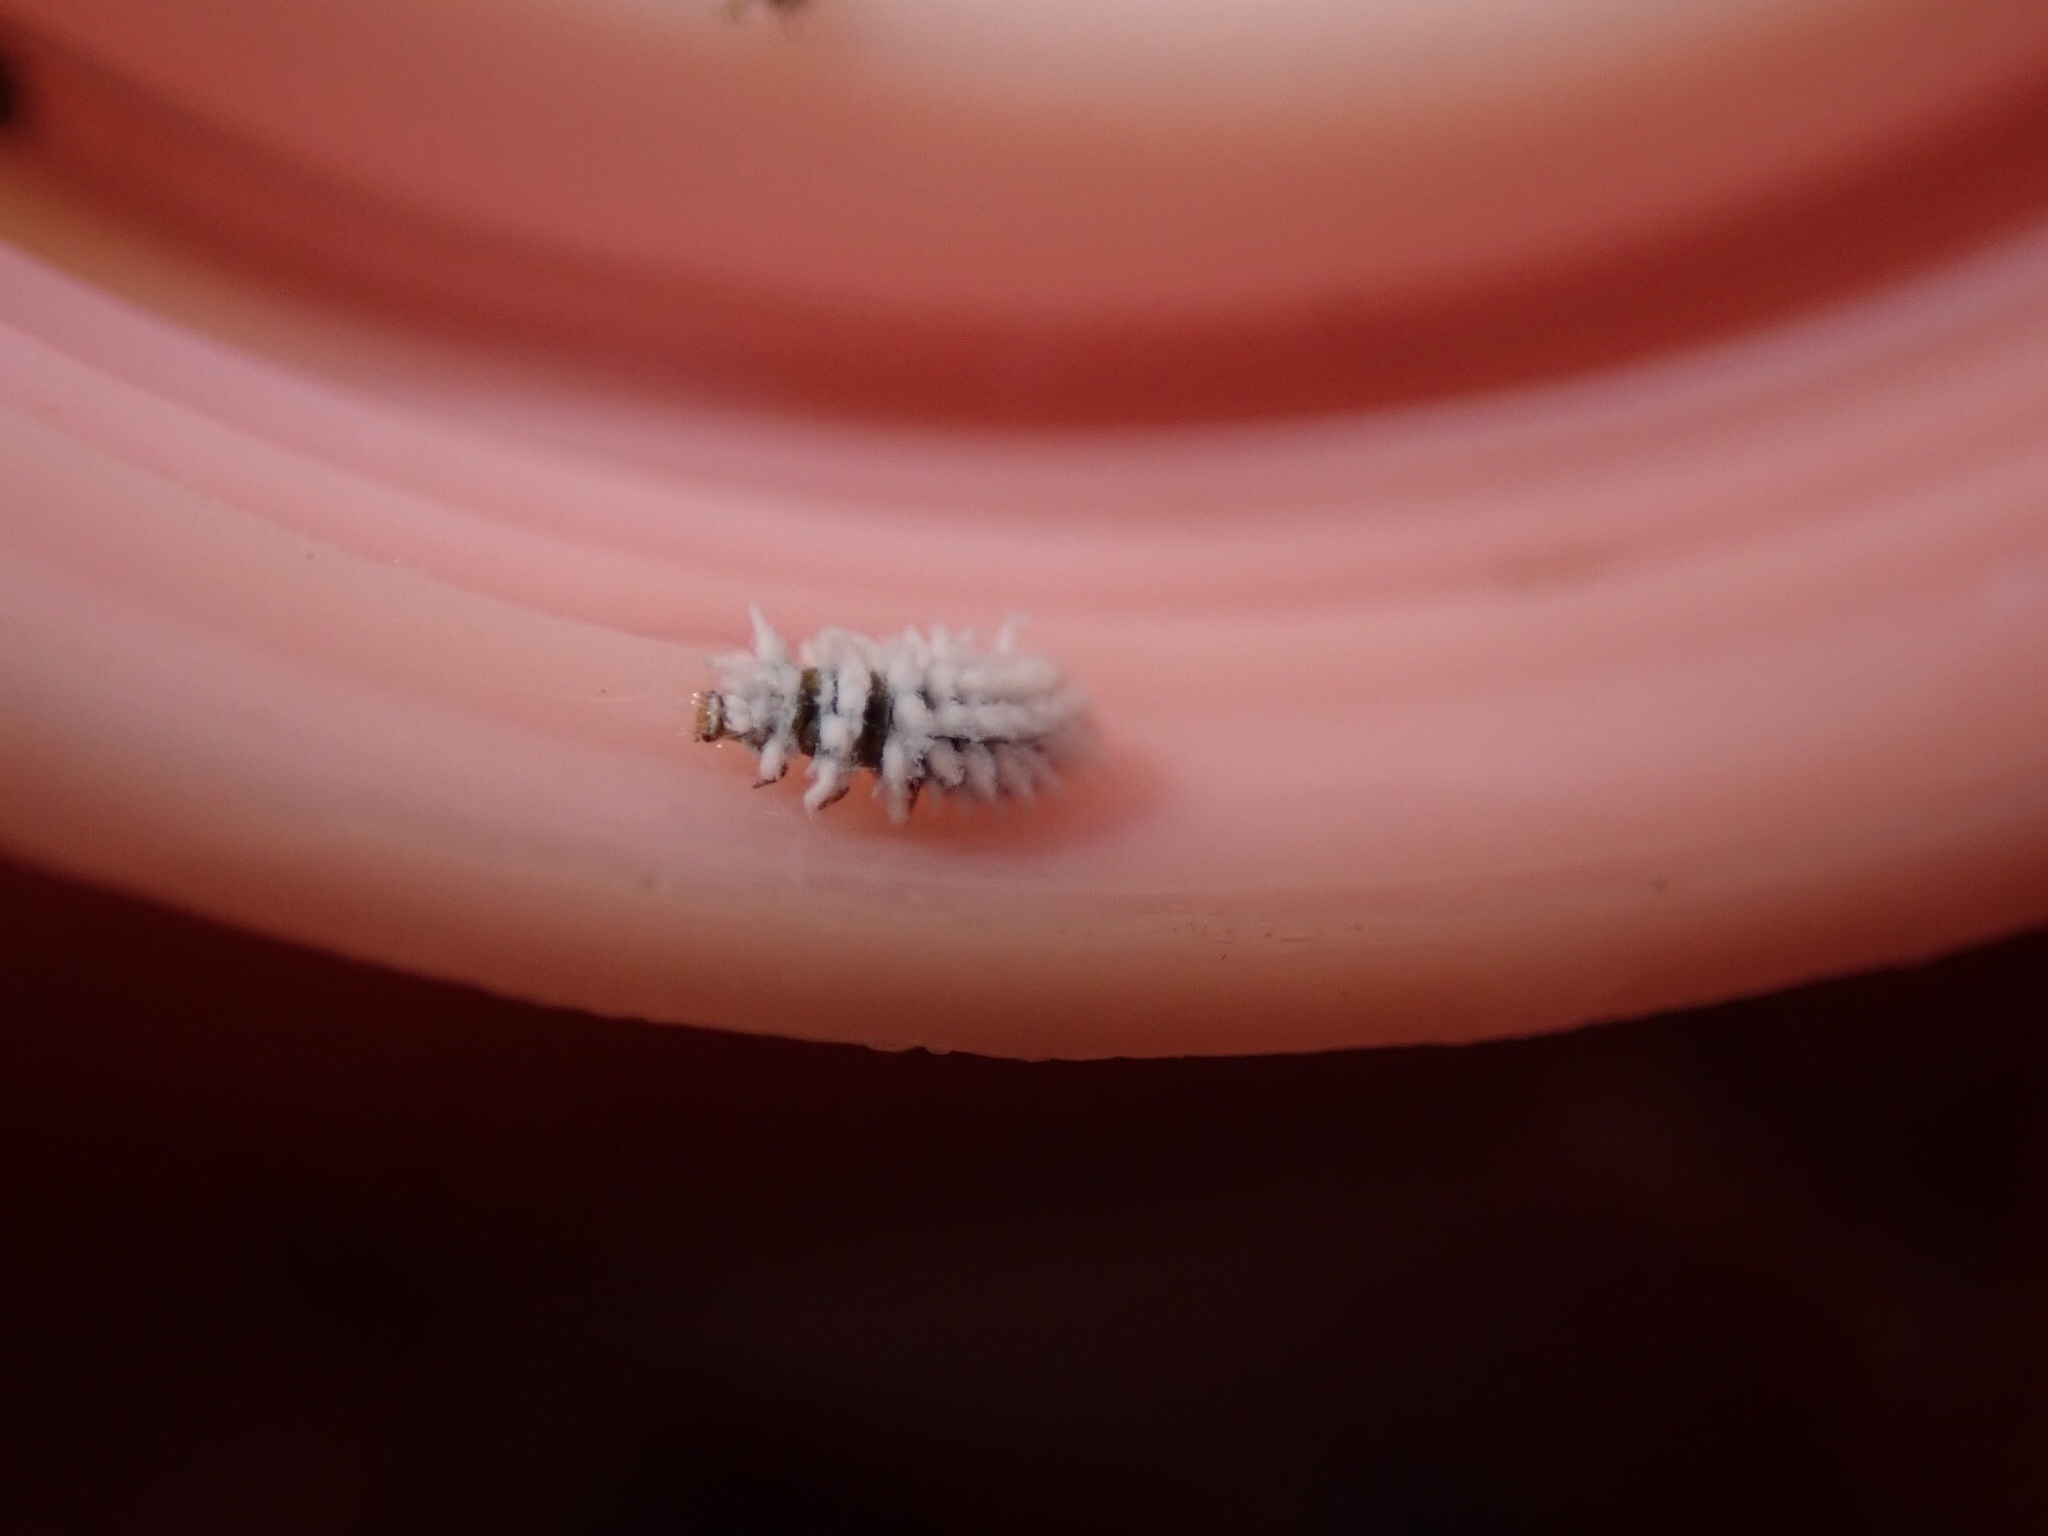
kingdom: Animalia
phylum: Arthropoda
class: Insecta
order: Coleoptera
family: Coccinellidae
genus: Cryptolaemus
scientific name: Cryptolaemus montrouzieri
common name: Mealybug destroyer
